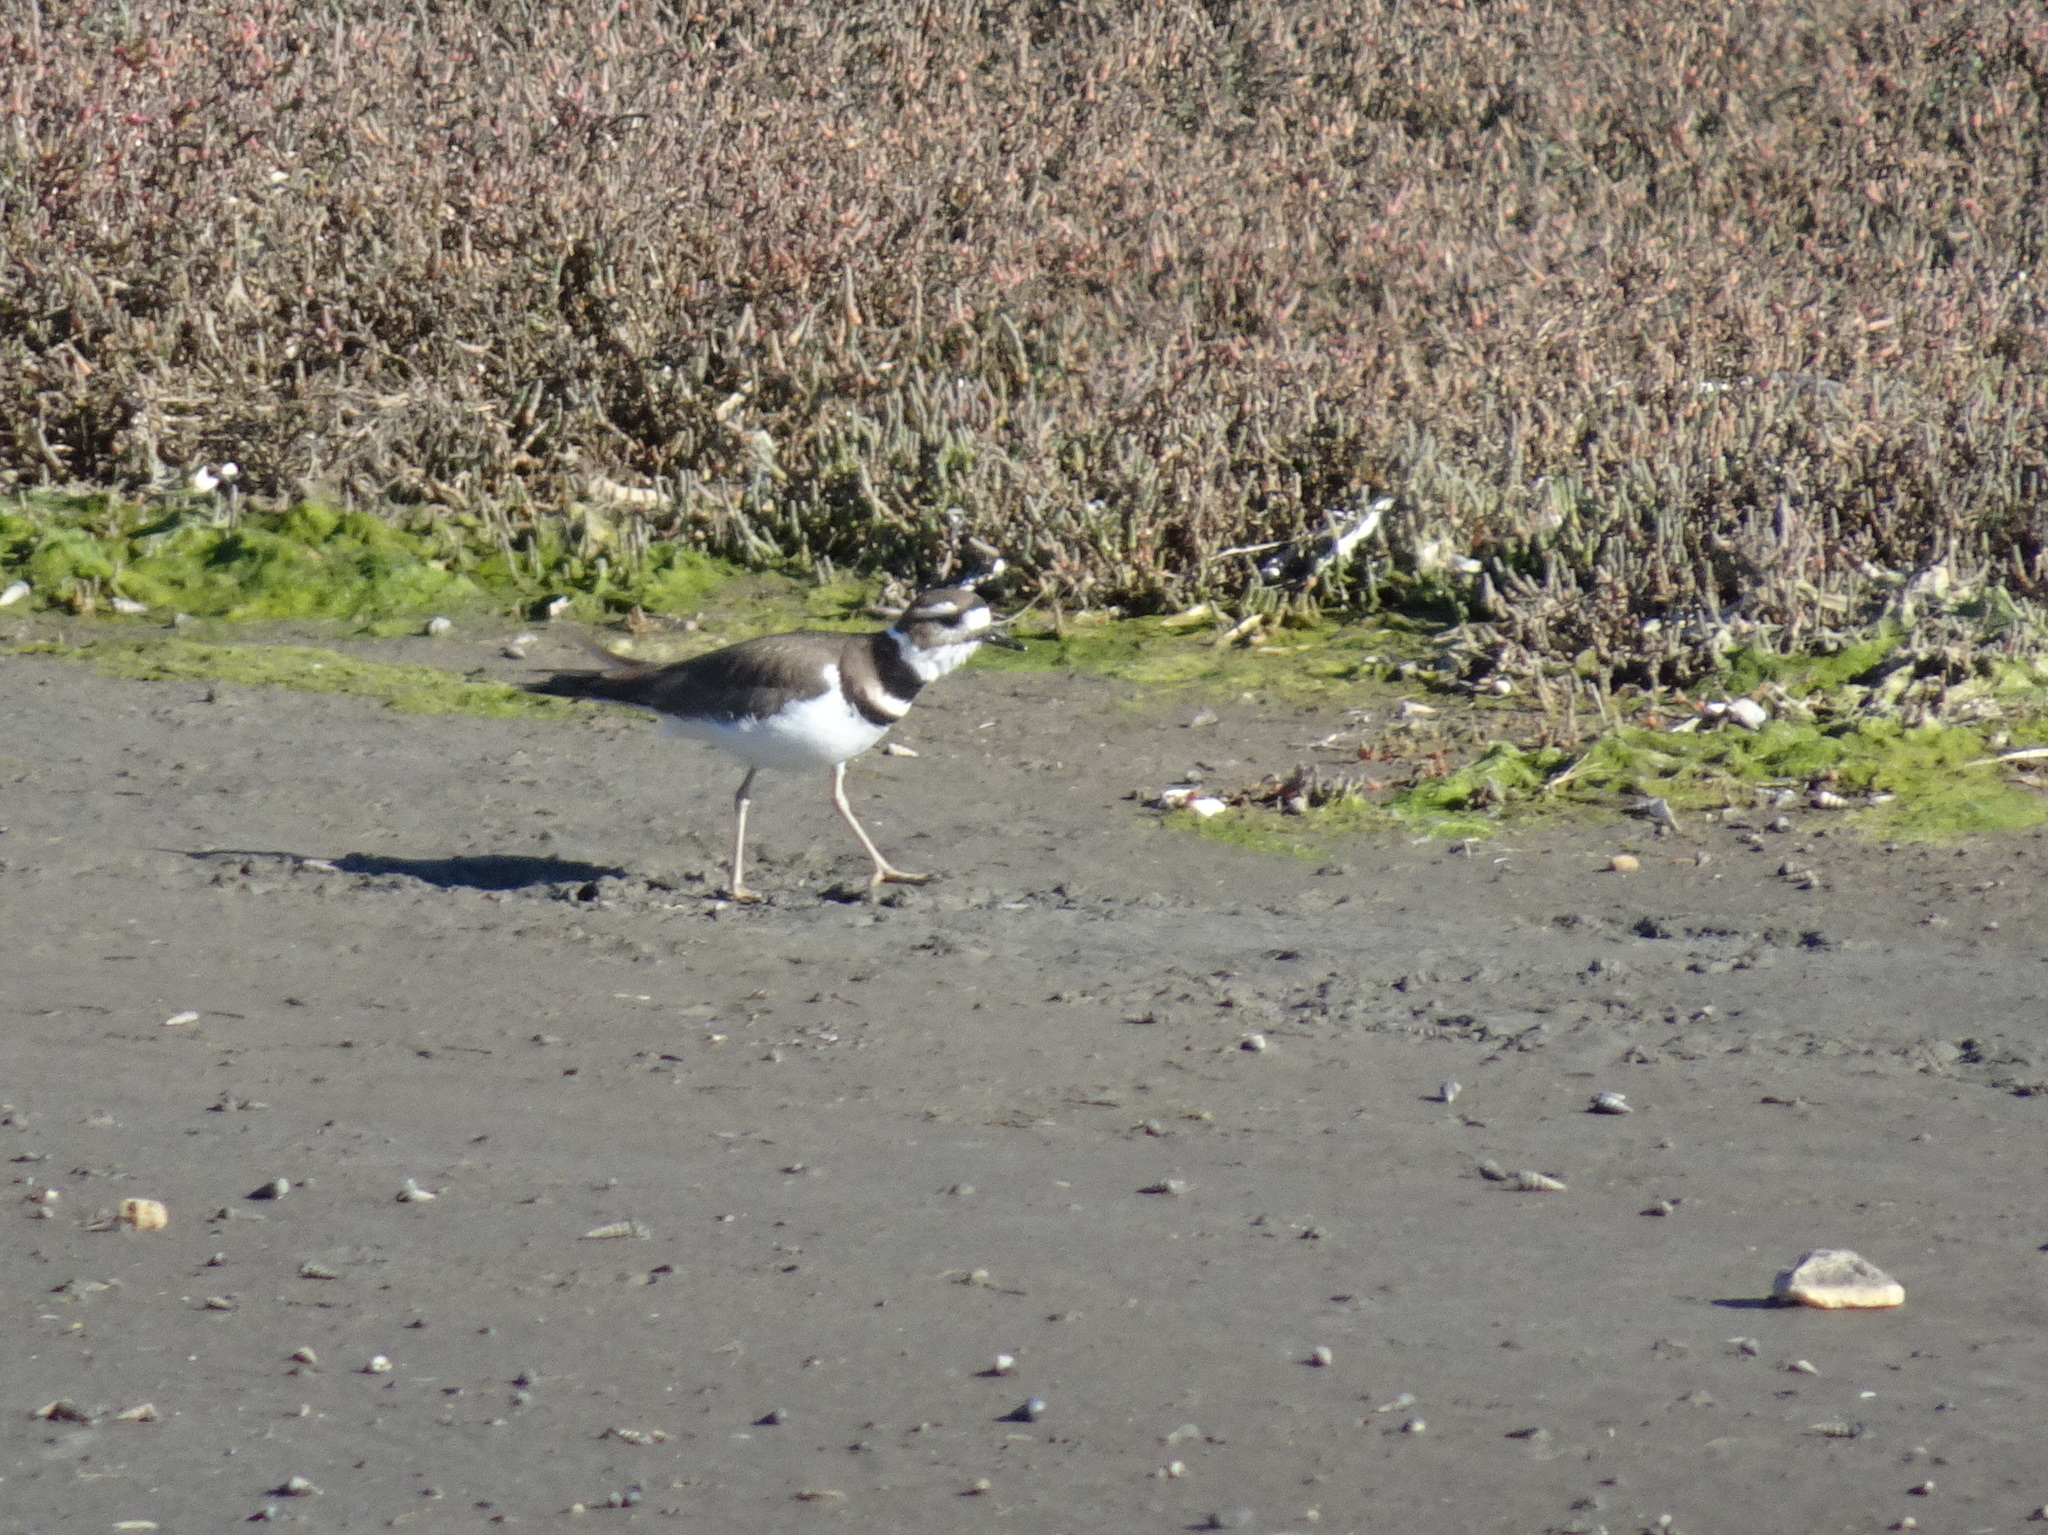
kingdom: Animalia
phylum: Chordata
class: Aves
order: Charadriiformes
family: Charadriidae
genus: Charadrius
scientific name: Charadrius vociferus
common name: Killdeer
